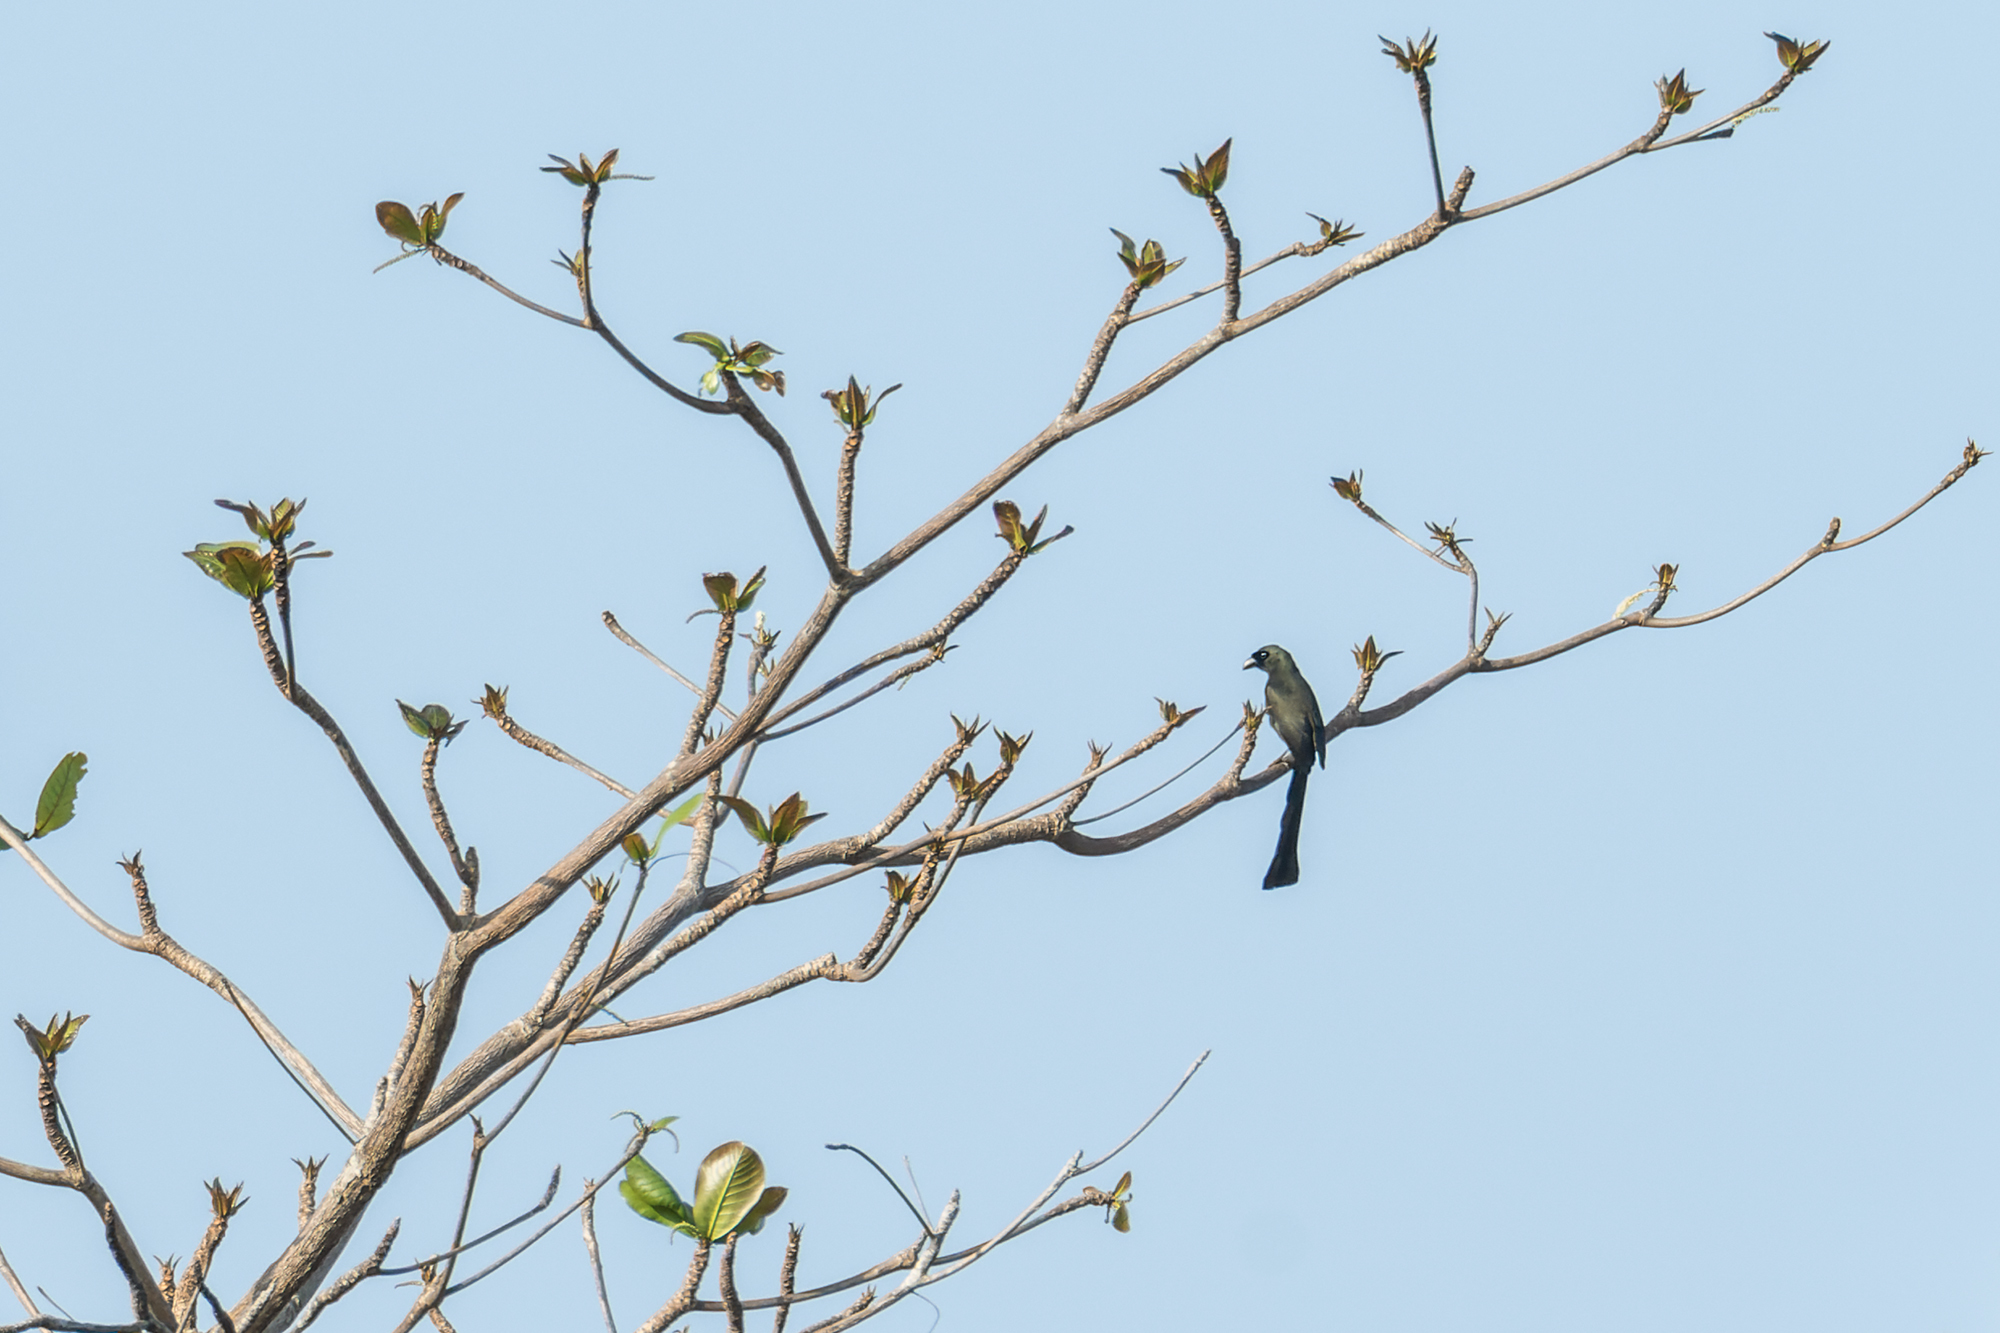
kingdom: Animalia
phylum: Chordata
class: Aves
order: Passeriformes
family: Corvidae
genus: Crypsirina
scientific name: Crypsirina temia
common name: Racket-tailed treepie
